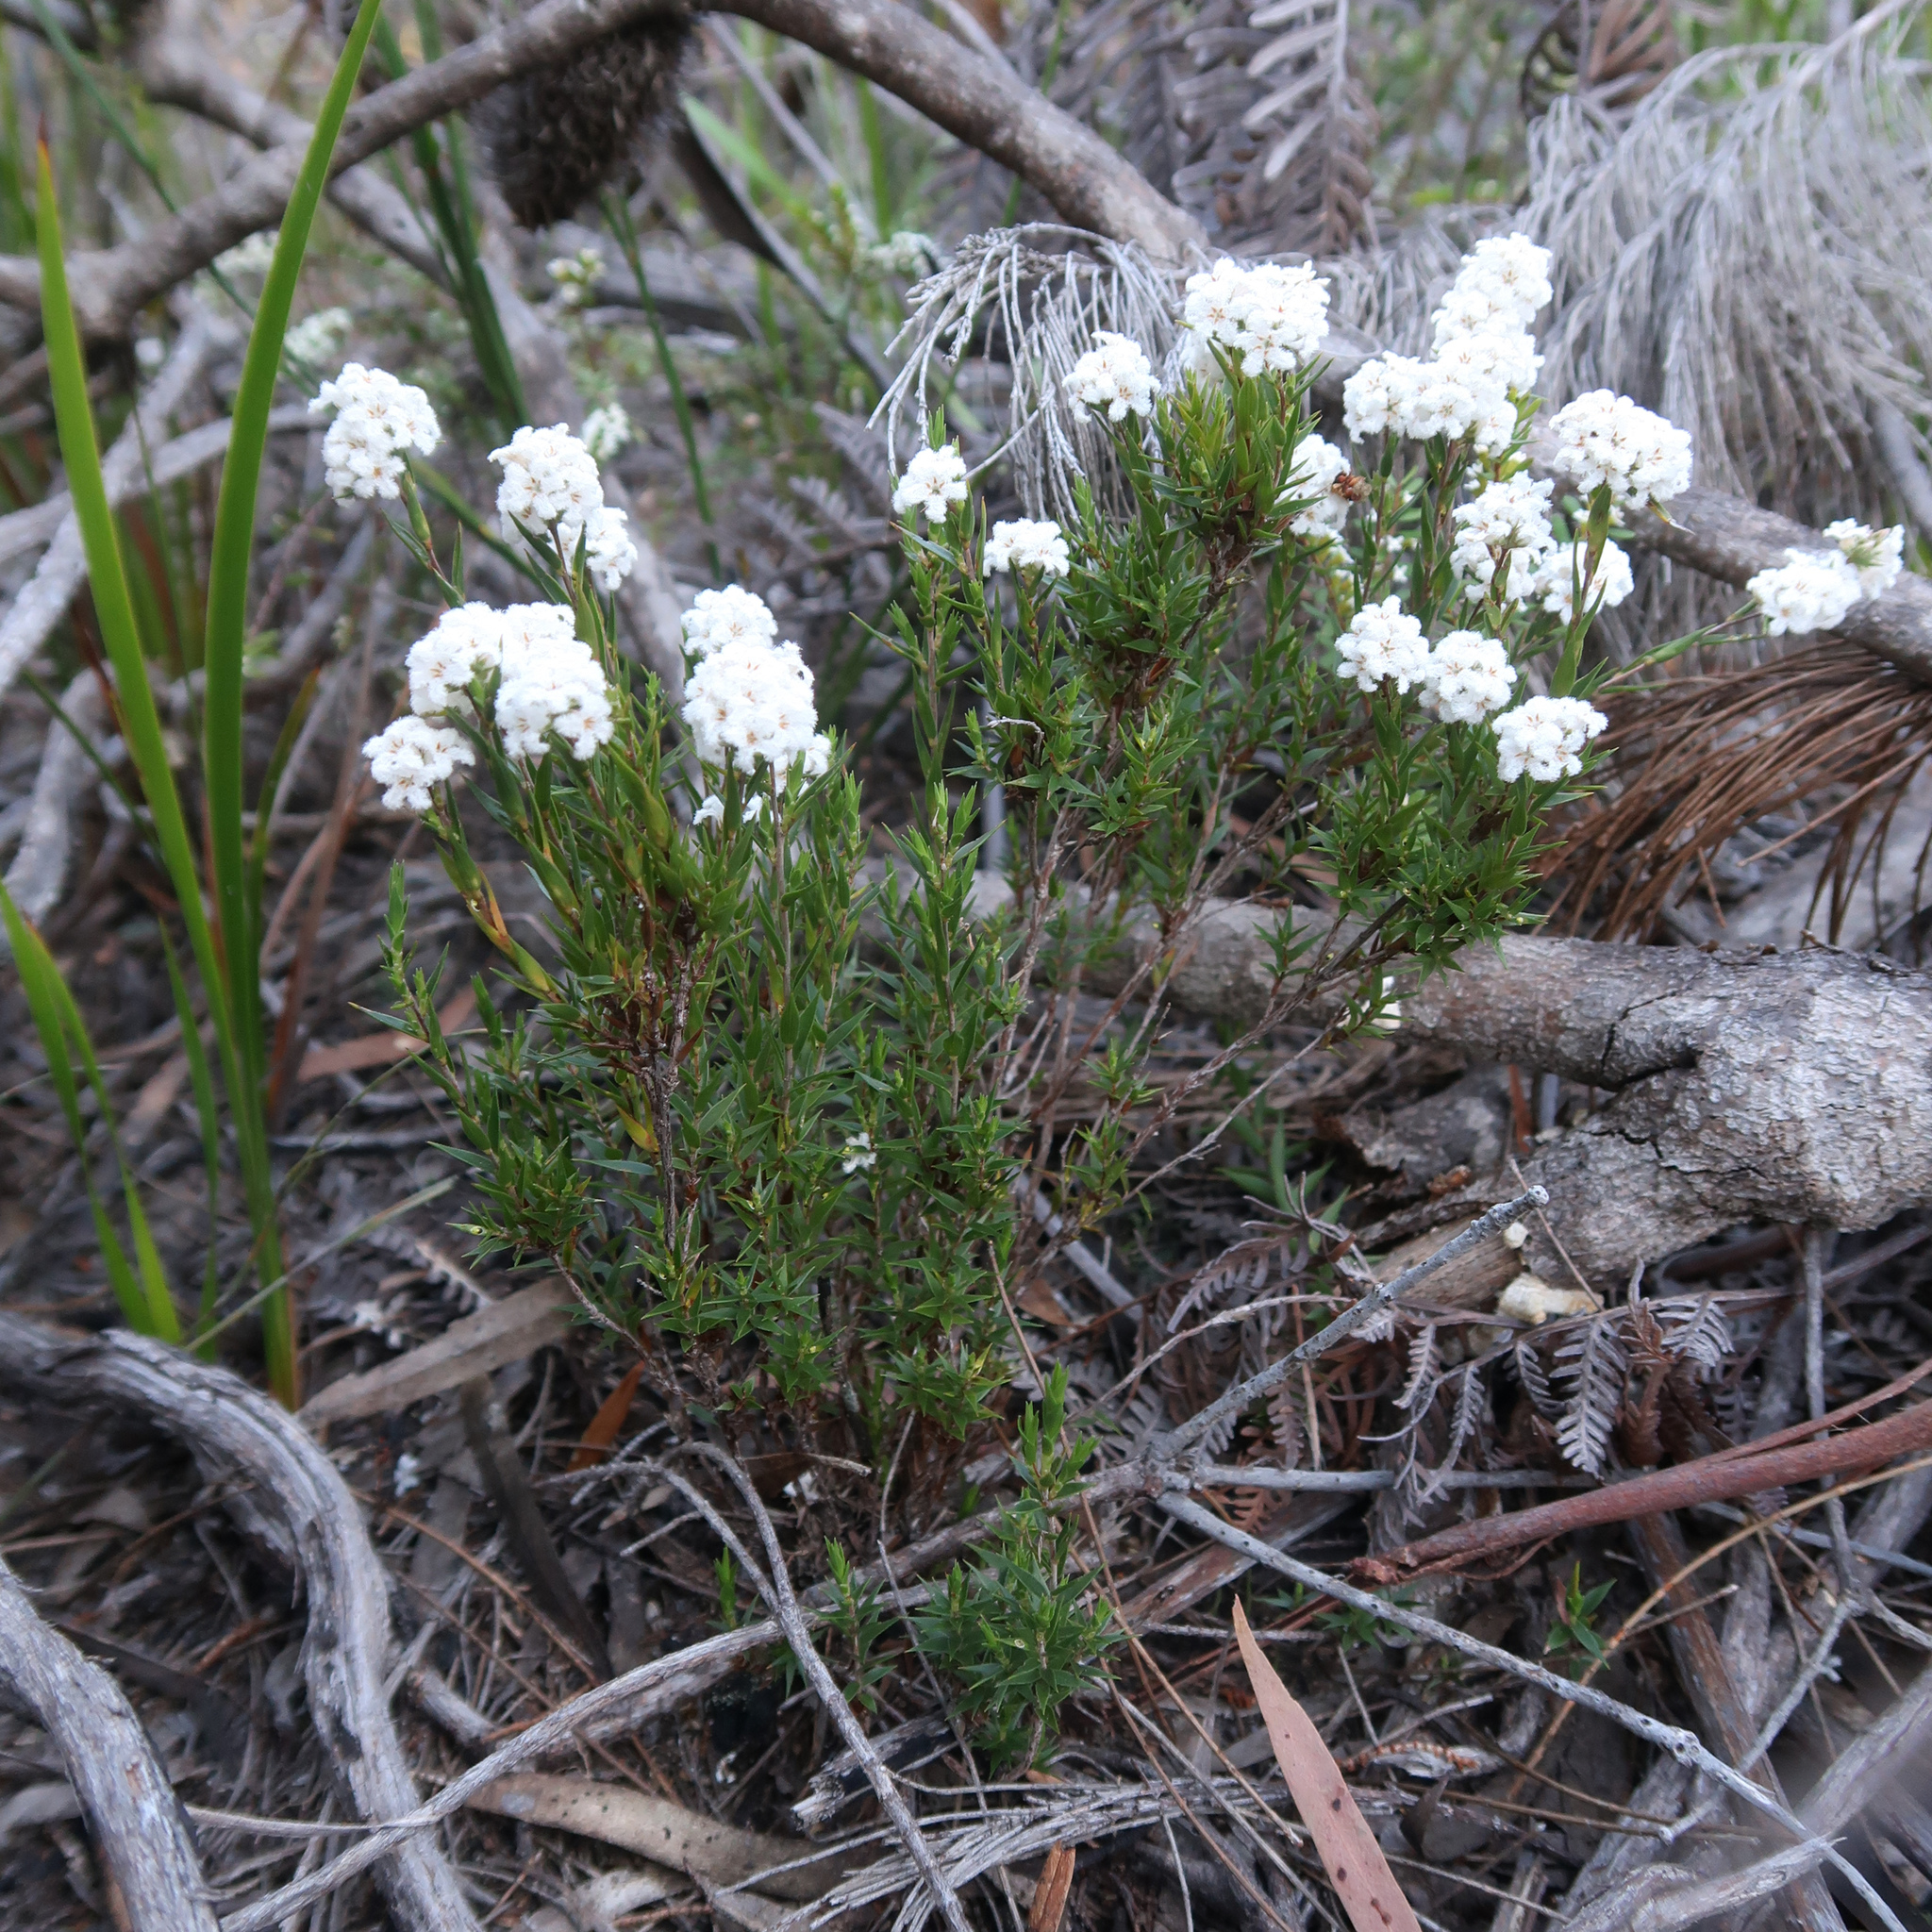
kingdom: Plantae
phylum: Tracheophyta
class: Magnoliopsida
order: Ericales
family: Ericaceae
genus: Leucopogon
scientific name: Leucopogon virgatus
